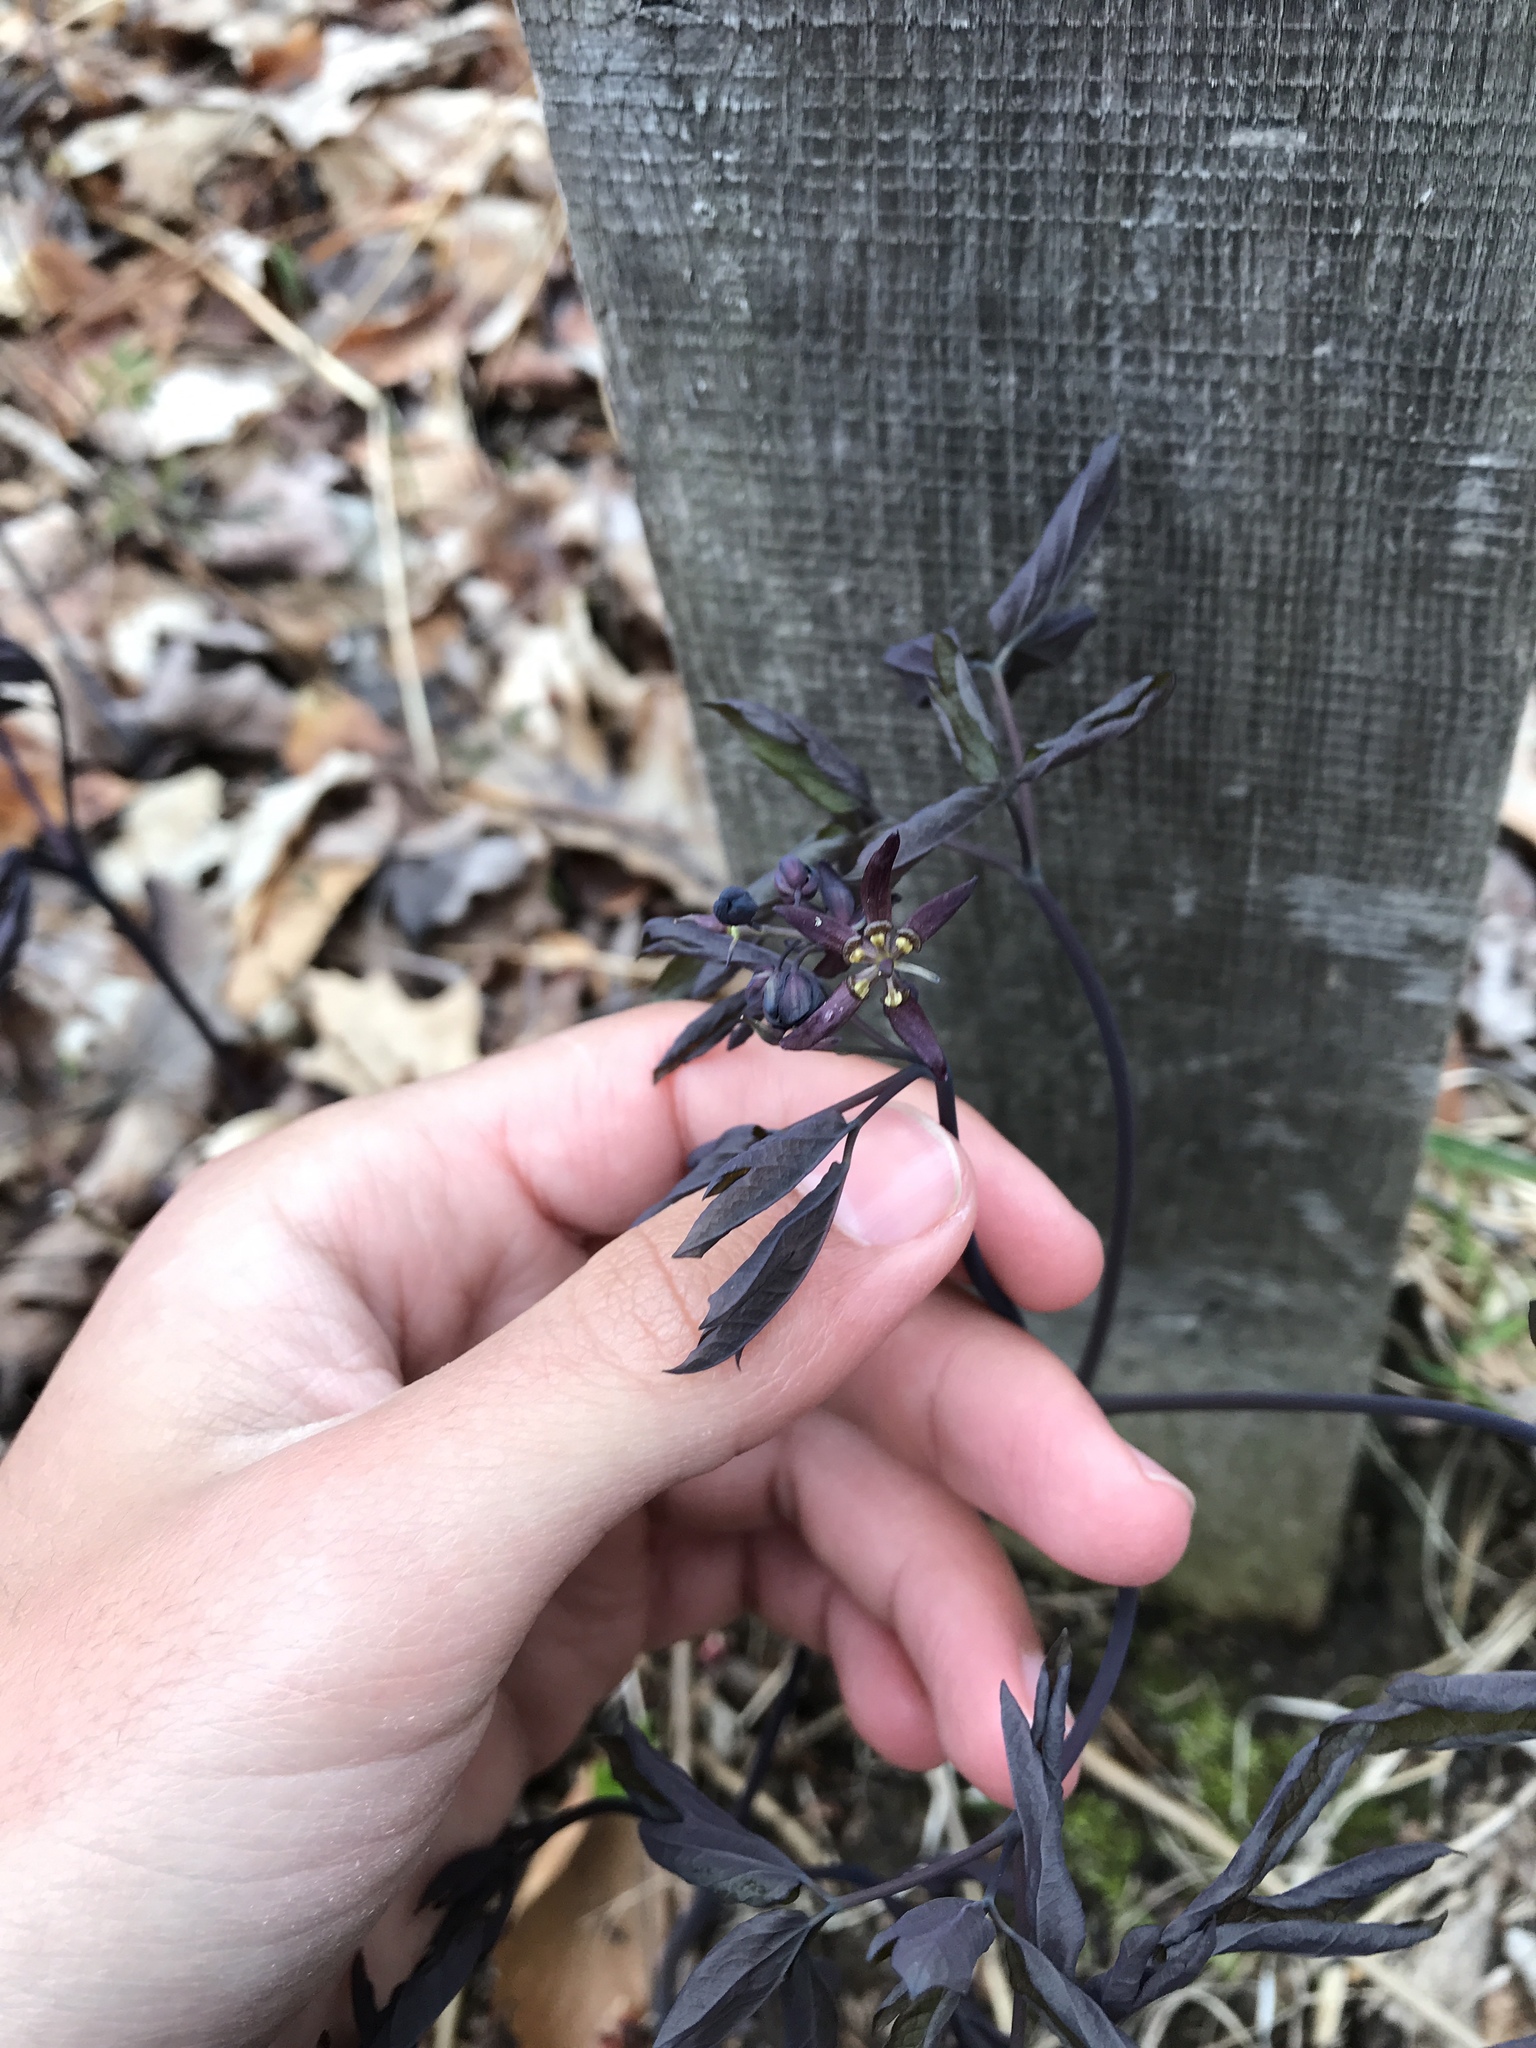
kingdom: Plantae
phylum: Tracheophyta
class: Magnoliopsida
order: Ranunculales
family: Berberidaceae
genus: Caulophyllum
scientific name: Caulophyllum giganteum
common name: Blue cohosh
